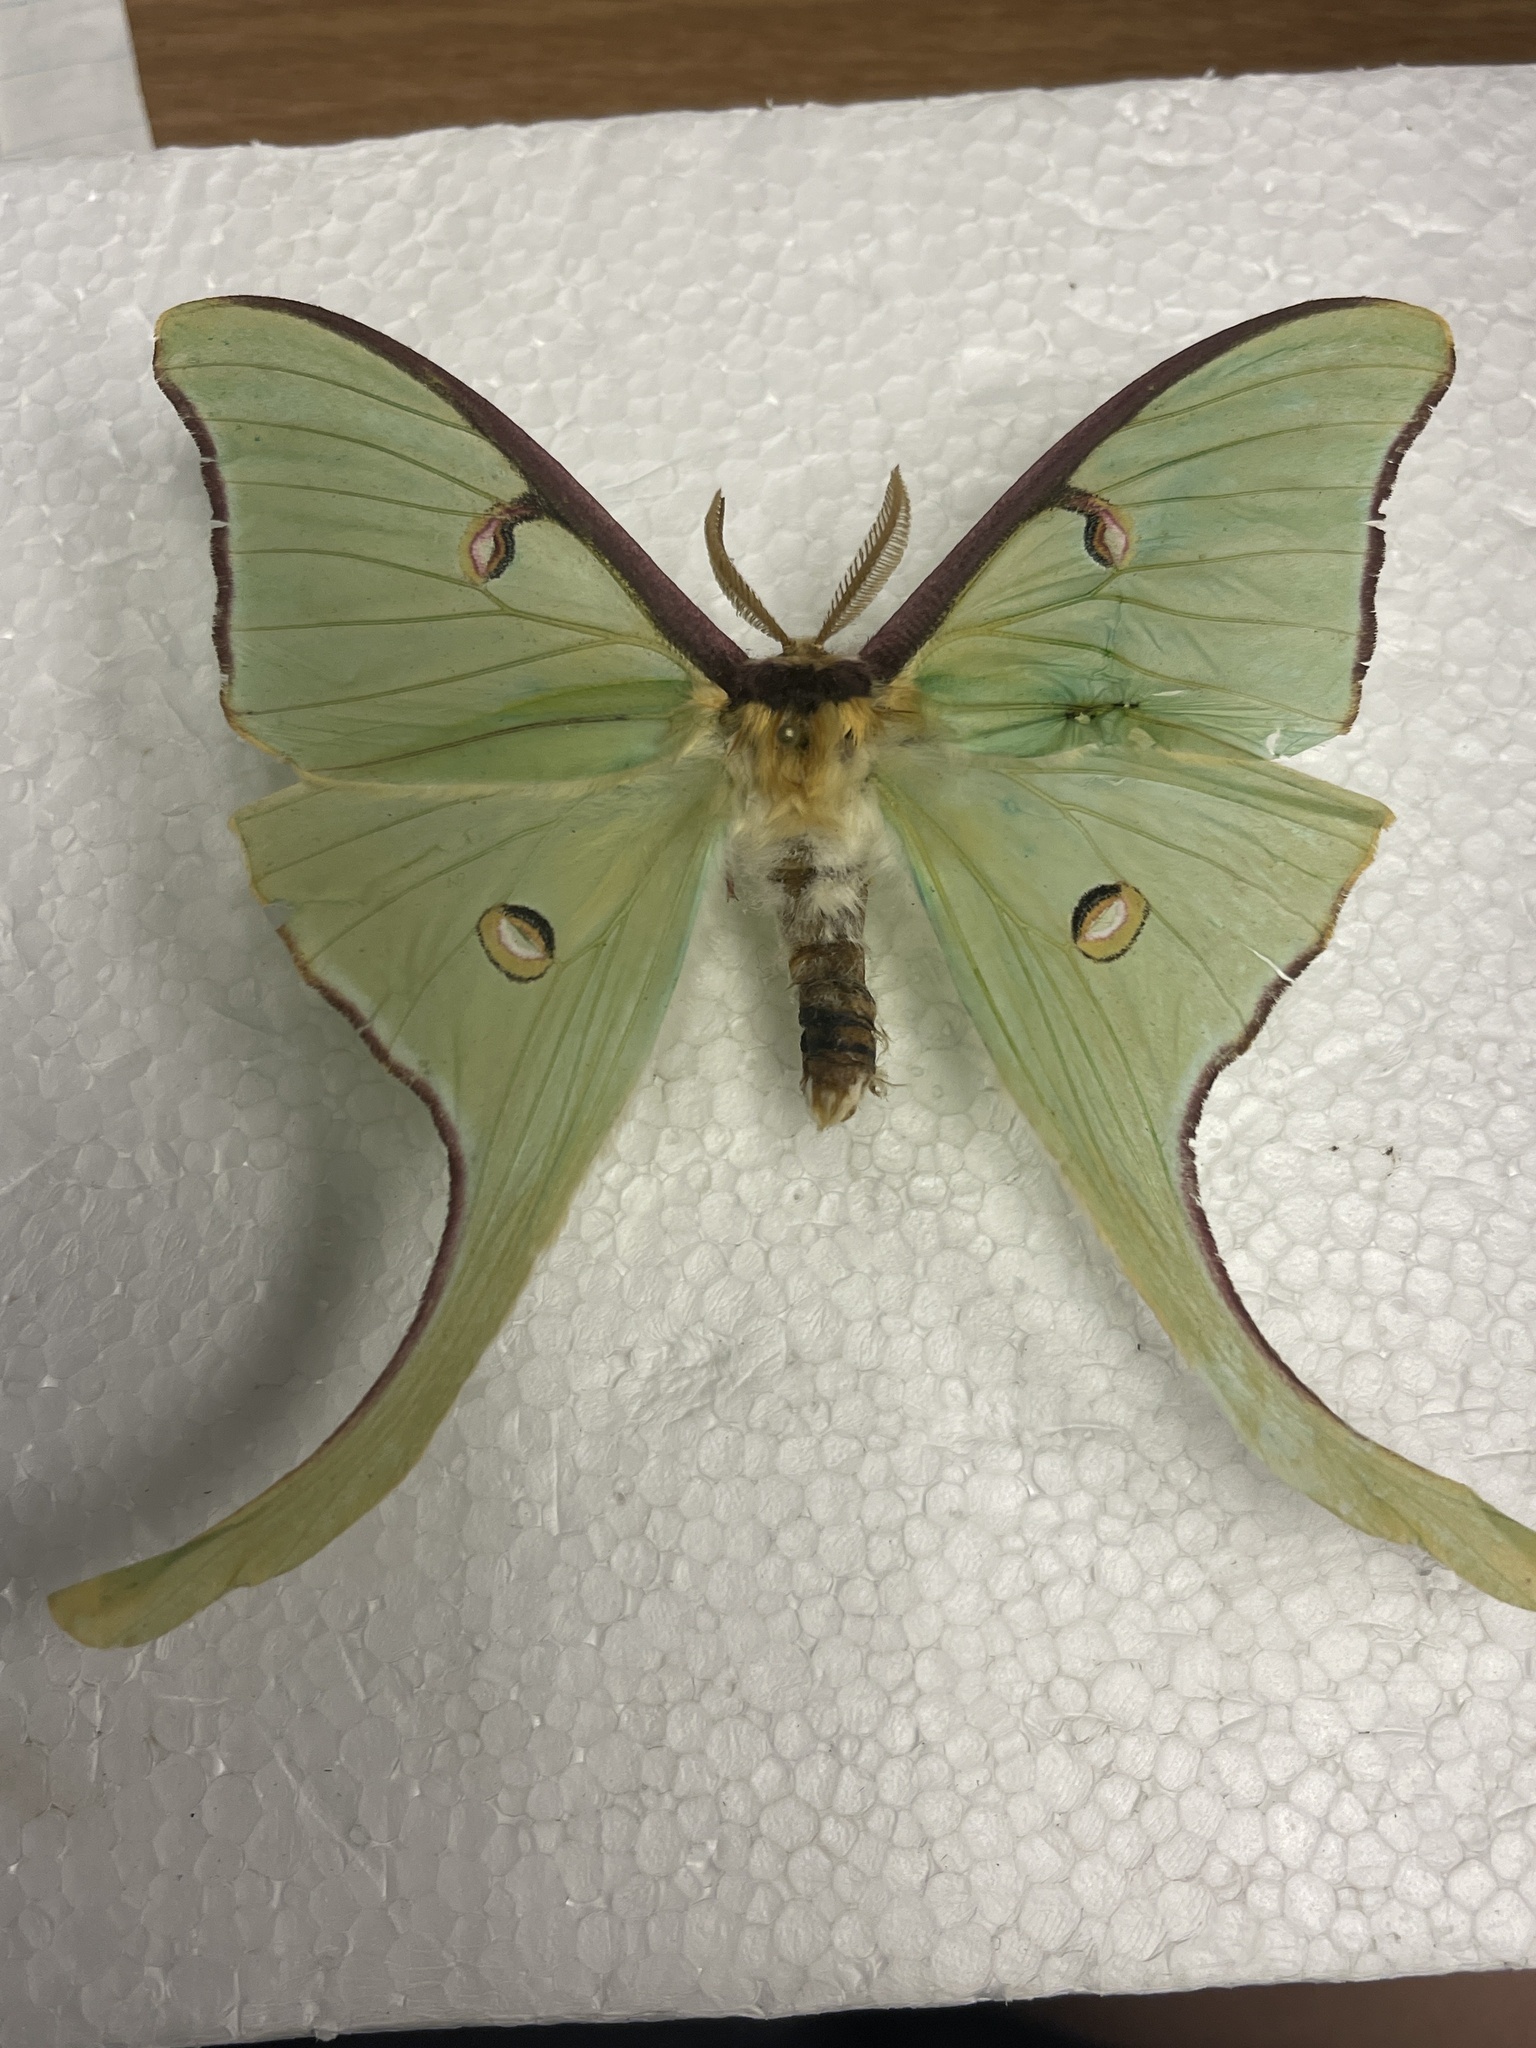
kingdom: Animalia
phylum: Arthropoda
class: Insecta
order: Lepidoptera
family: Saturniidae
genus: Actias
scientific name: Actias luna
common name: Luna moth
